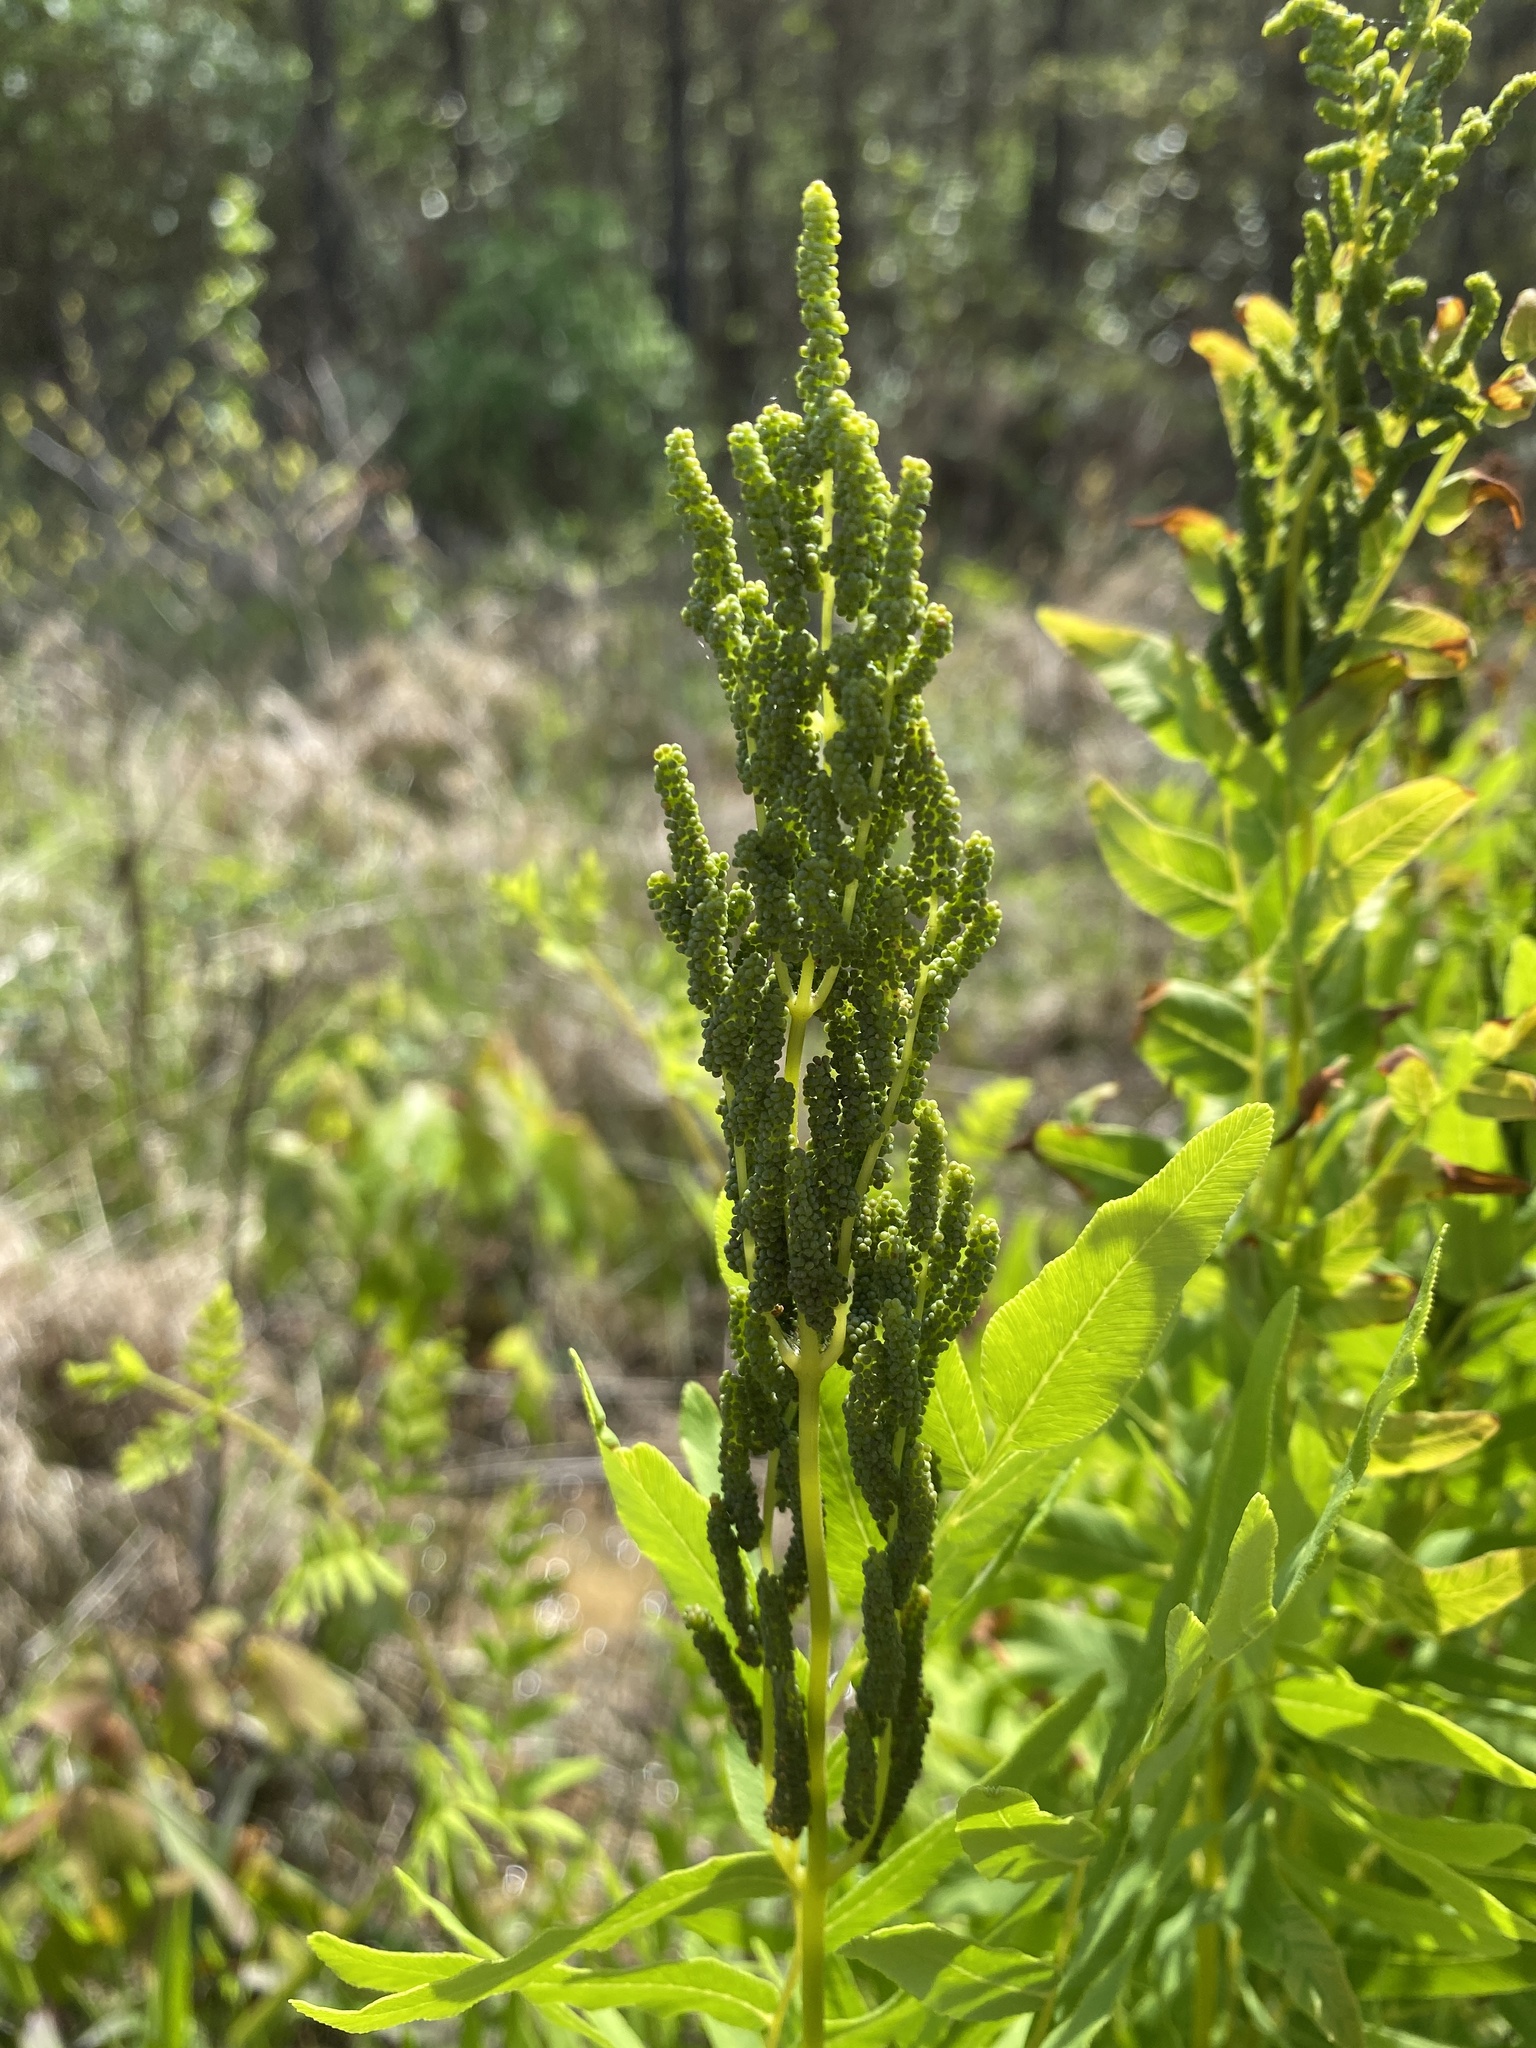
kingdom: Plantae
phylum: Tracheophyta
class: Polypodiopsida
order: Osmundales
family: Osmundaceae
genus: Osmunda
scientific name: Osmunda spectabilis
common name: American royal fern
